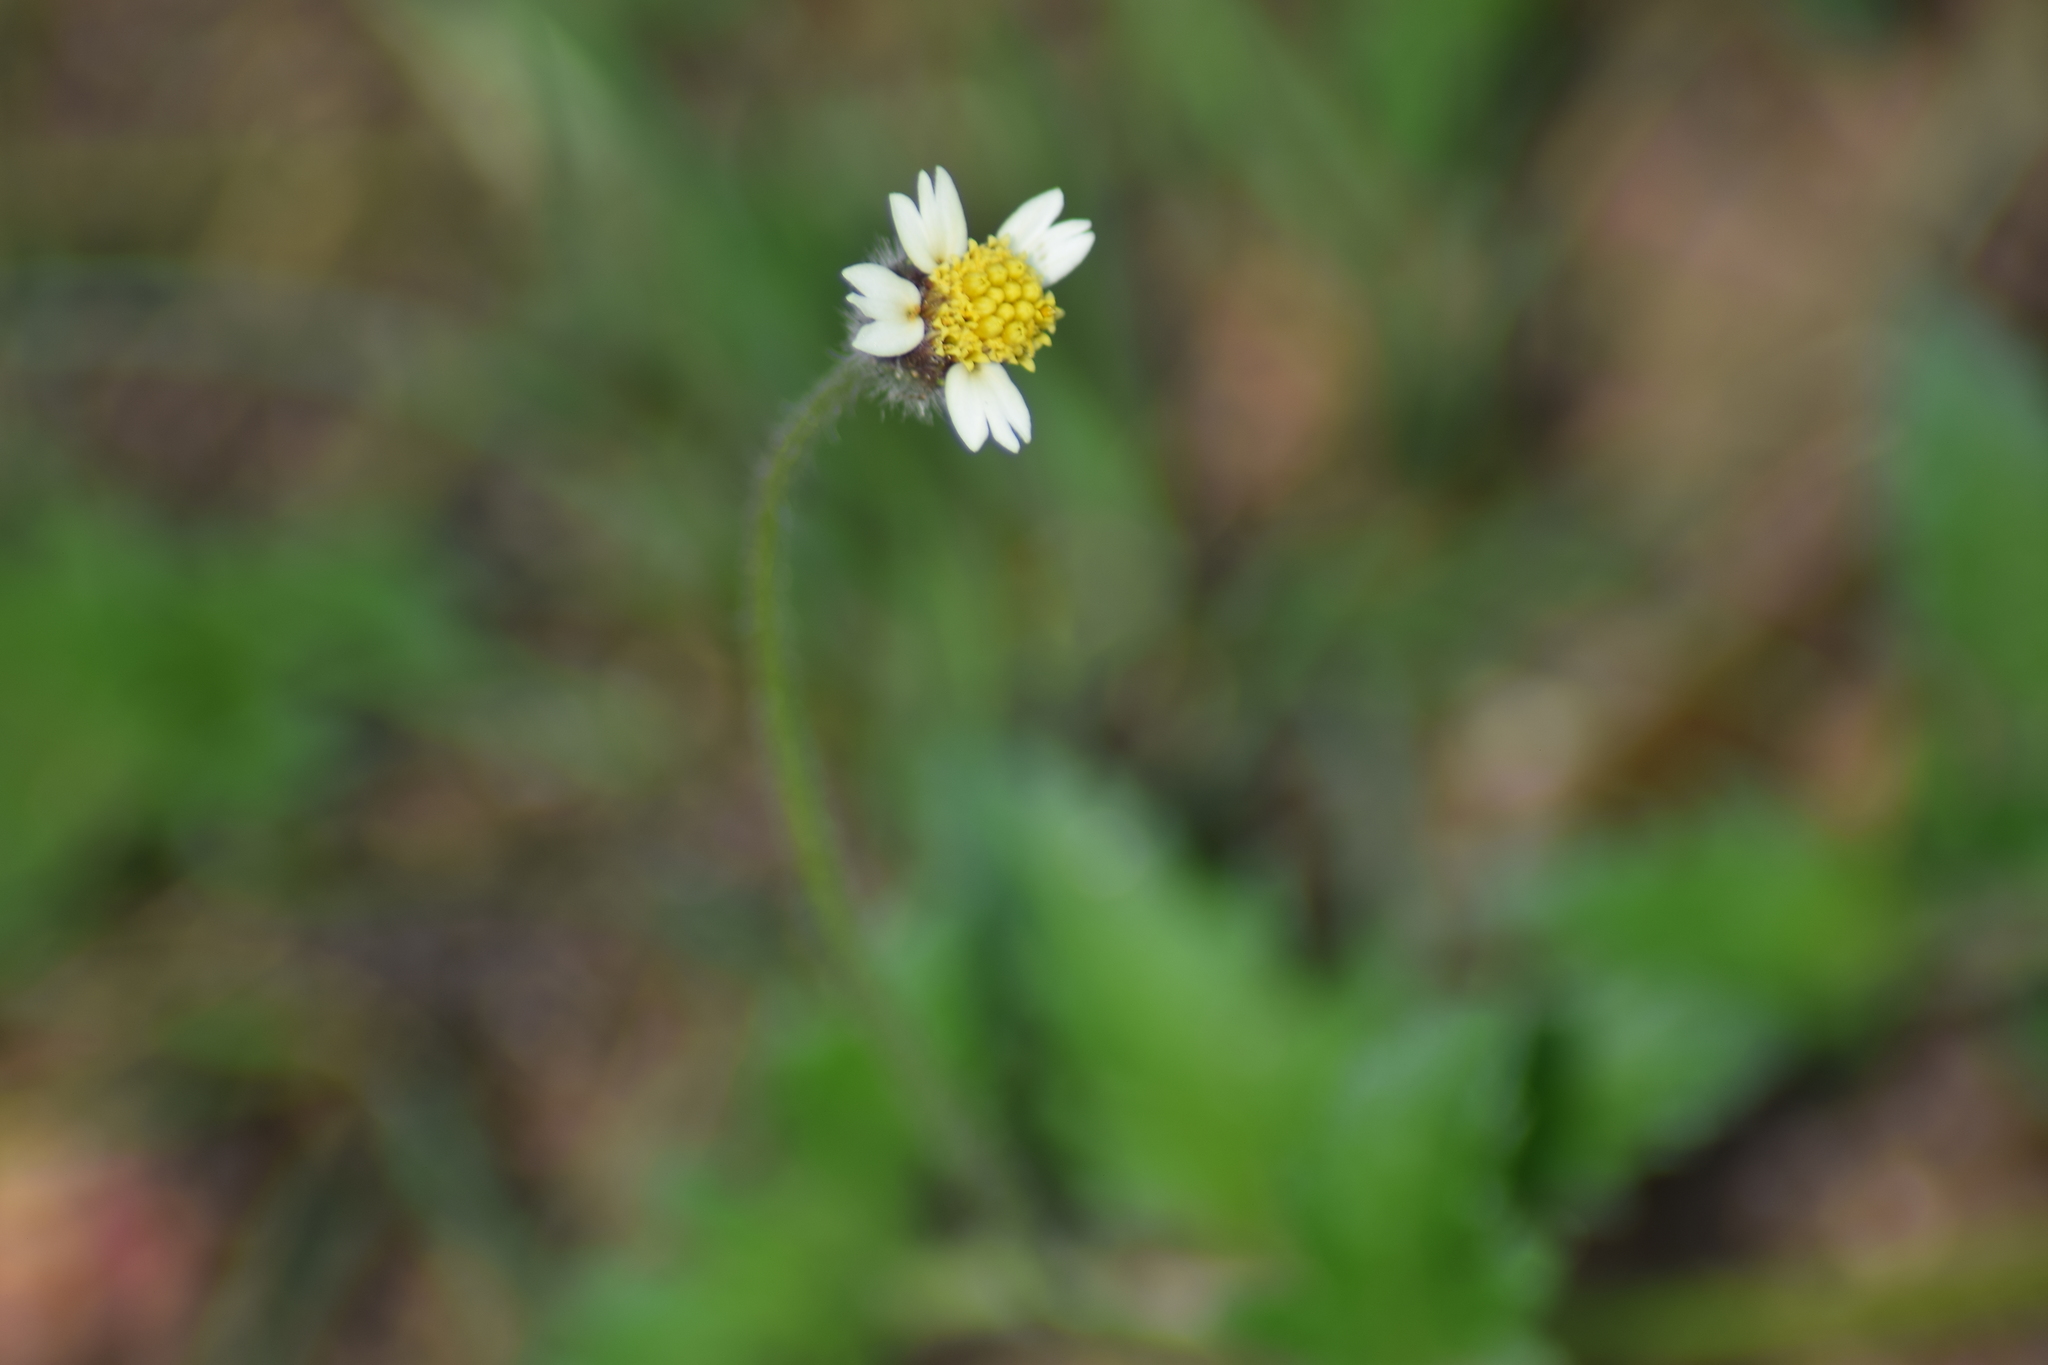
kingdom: Plantae
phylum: Tracheophyta
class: Magnoliopsida
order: Asterales
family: Asteraceae
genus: Tridax
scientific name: Tridax procumbens
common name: Coatbuttons
